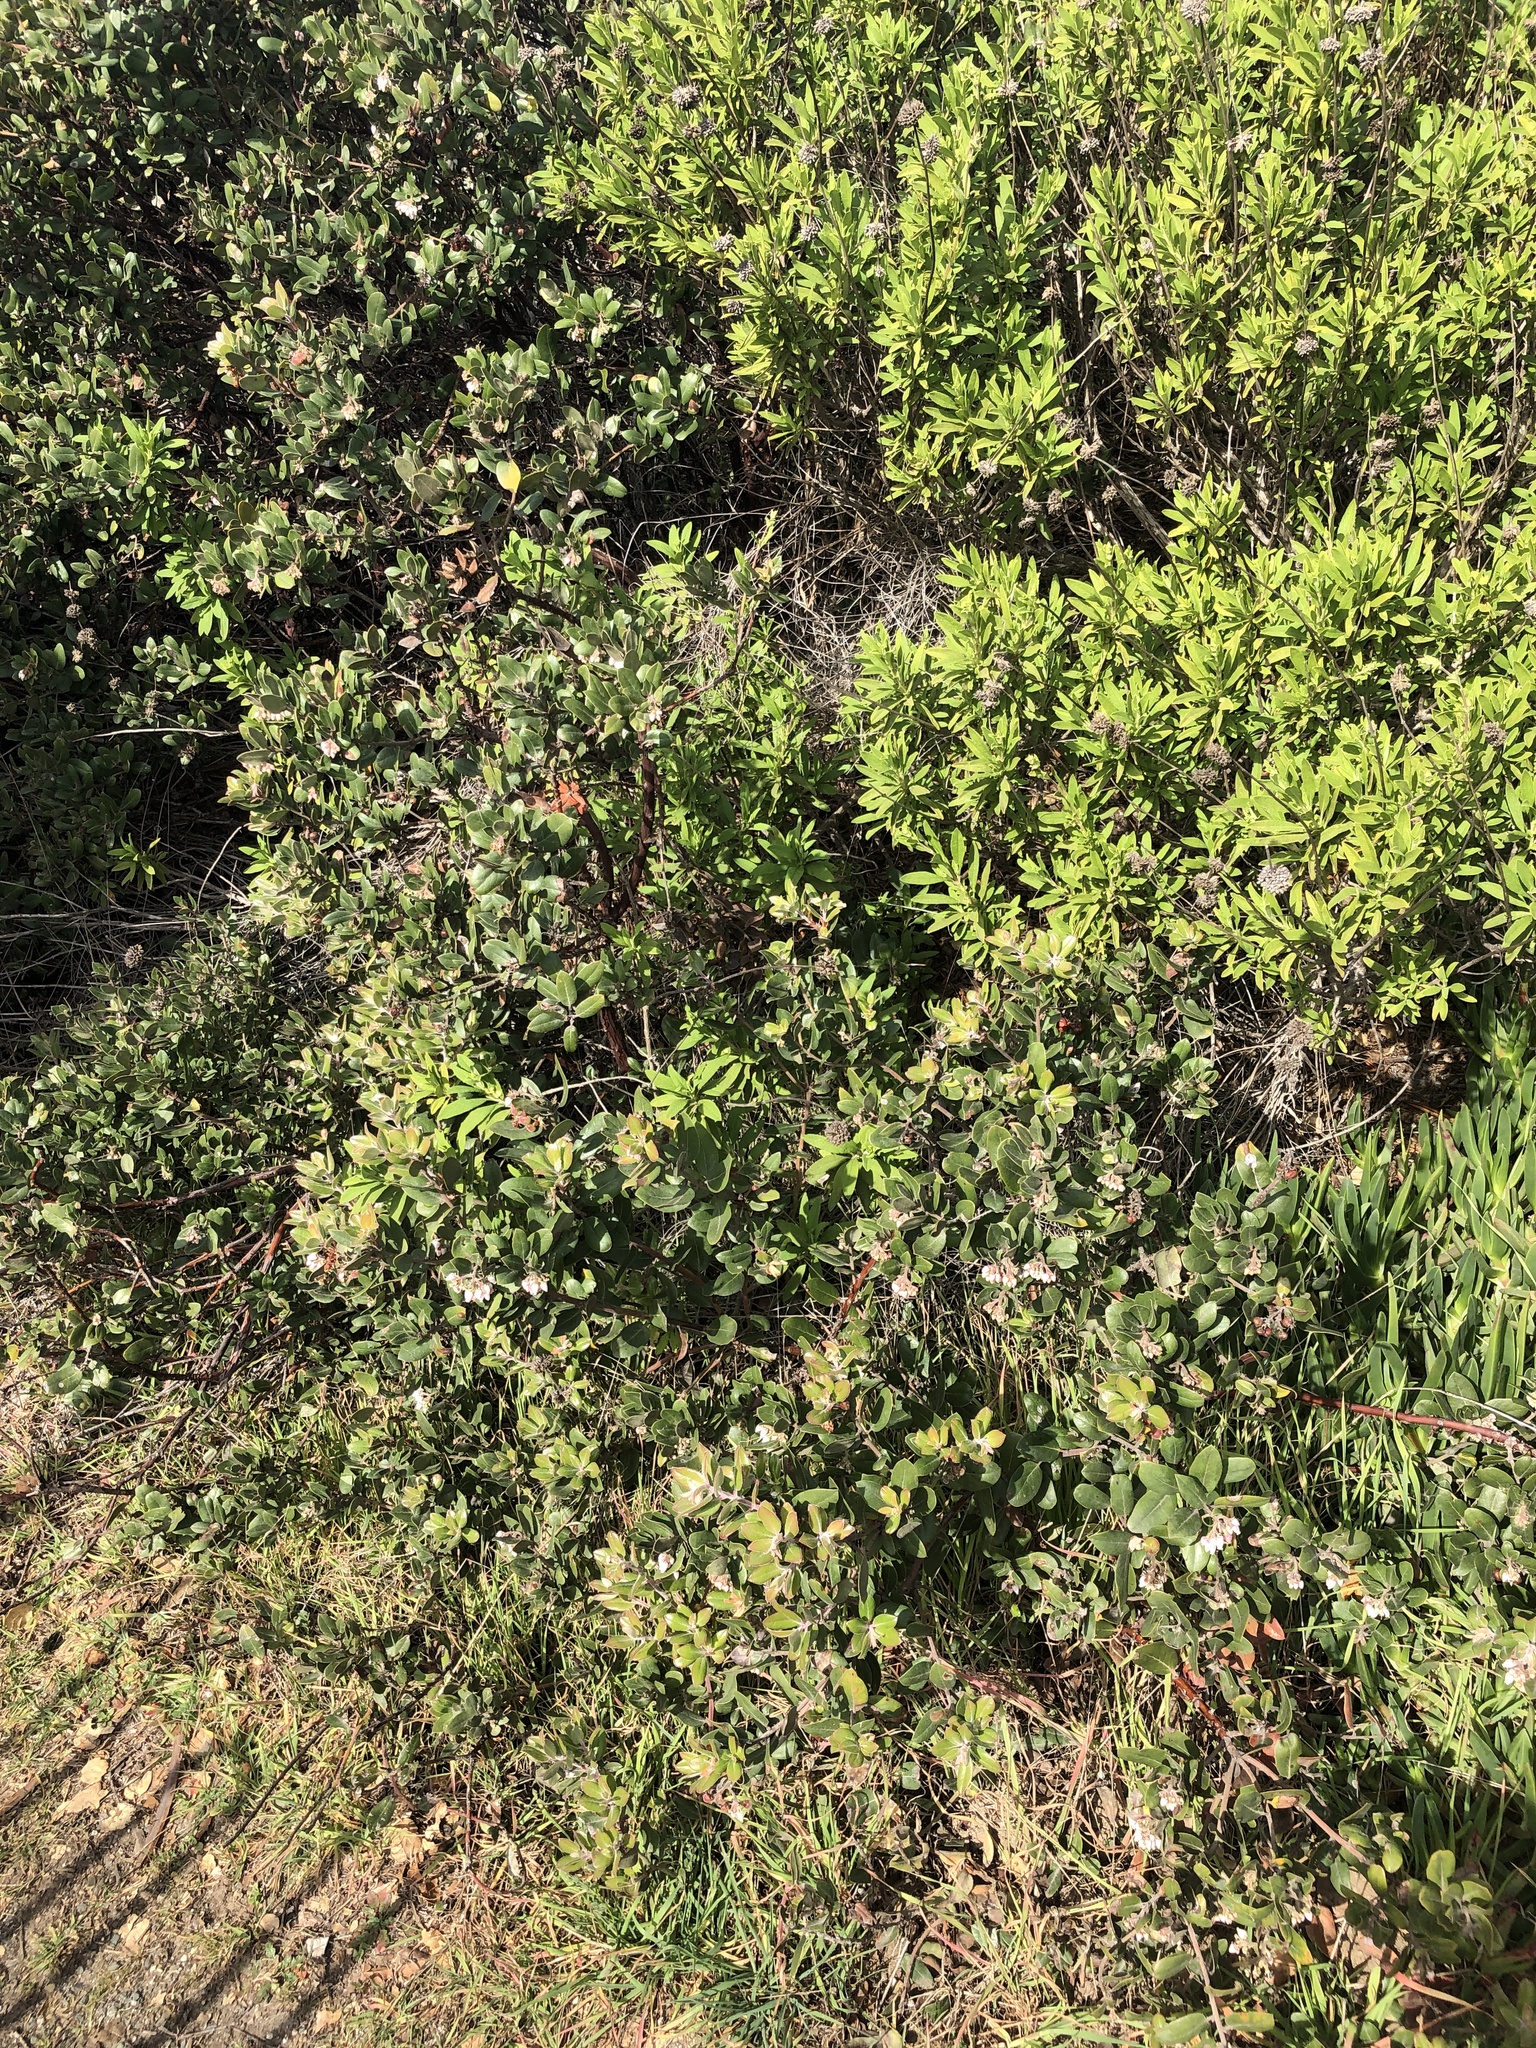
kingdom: Plantae
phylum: Tracheophyta
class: Magnoliopsida
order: Ericales
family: Ericaceae
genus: Arctostaphylos
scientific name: Arctostaphylos tomentosa
